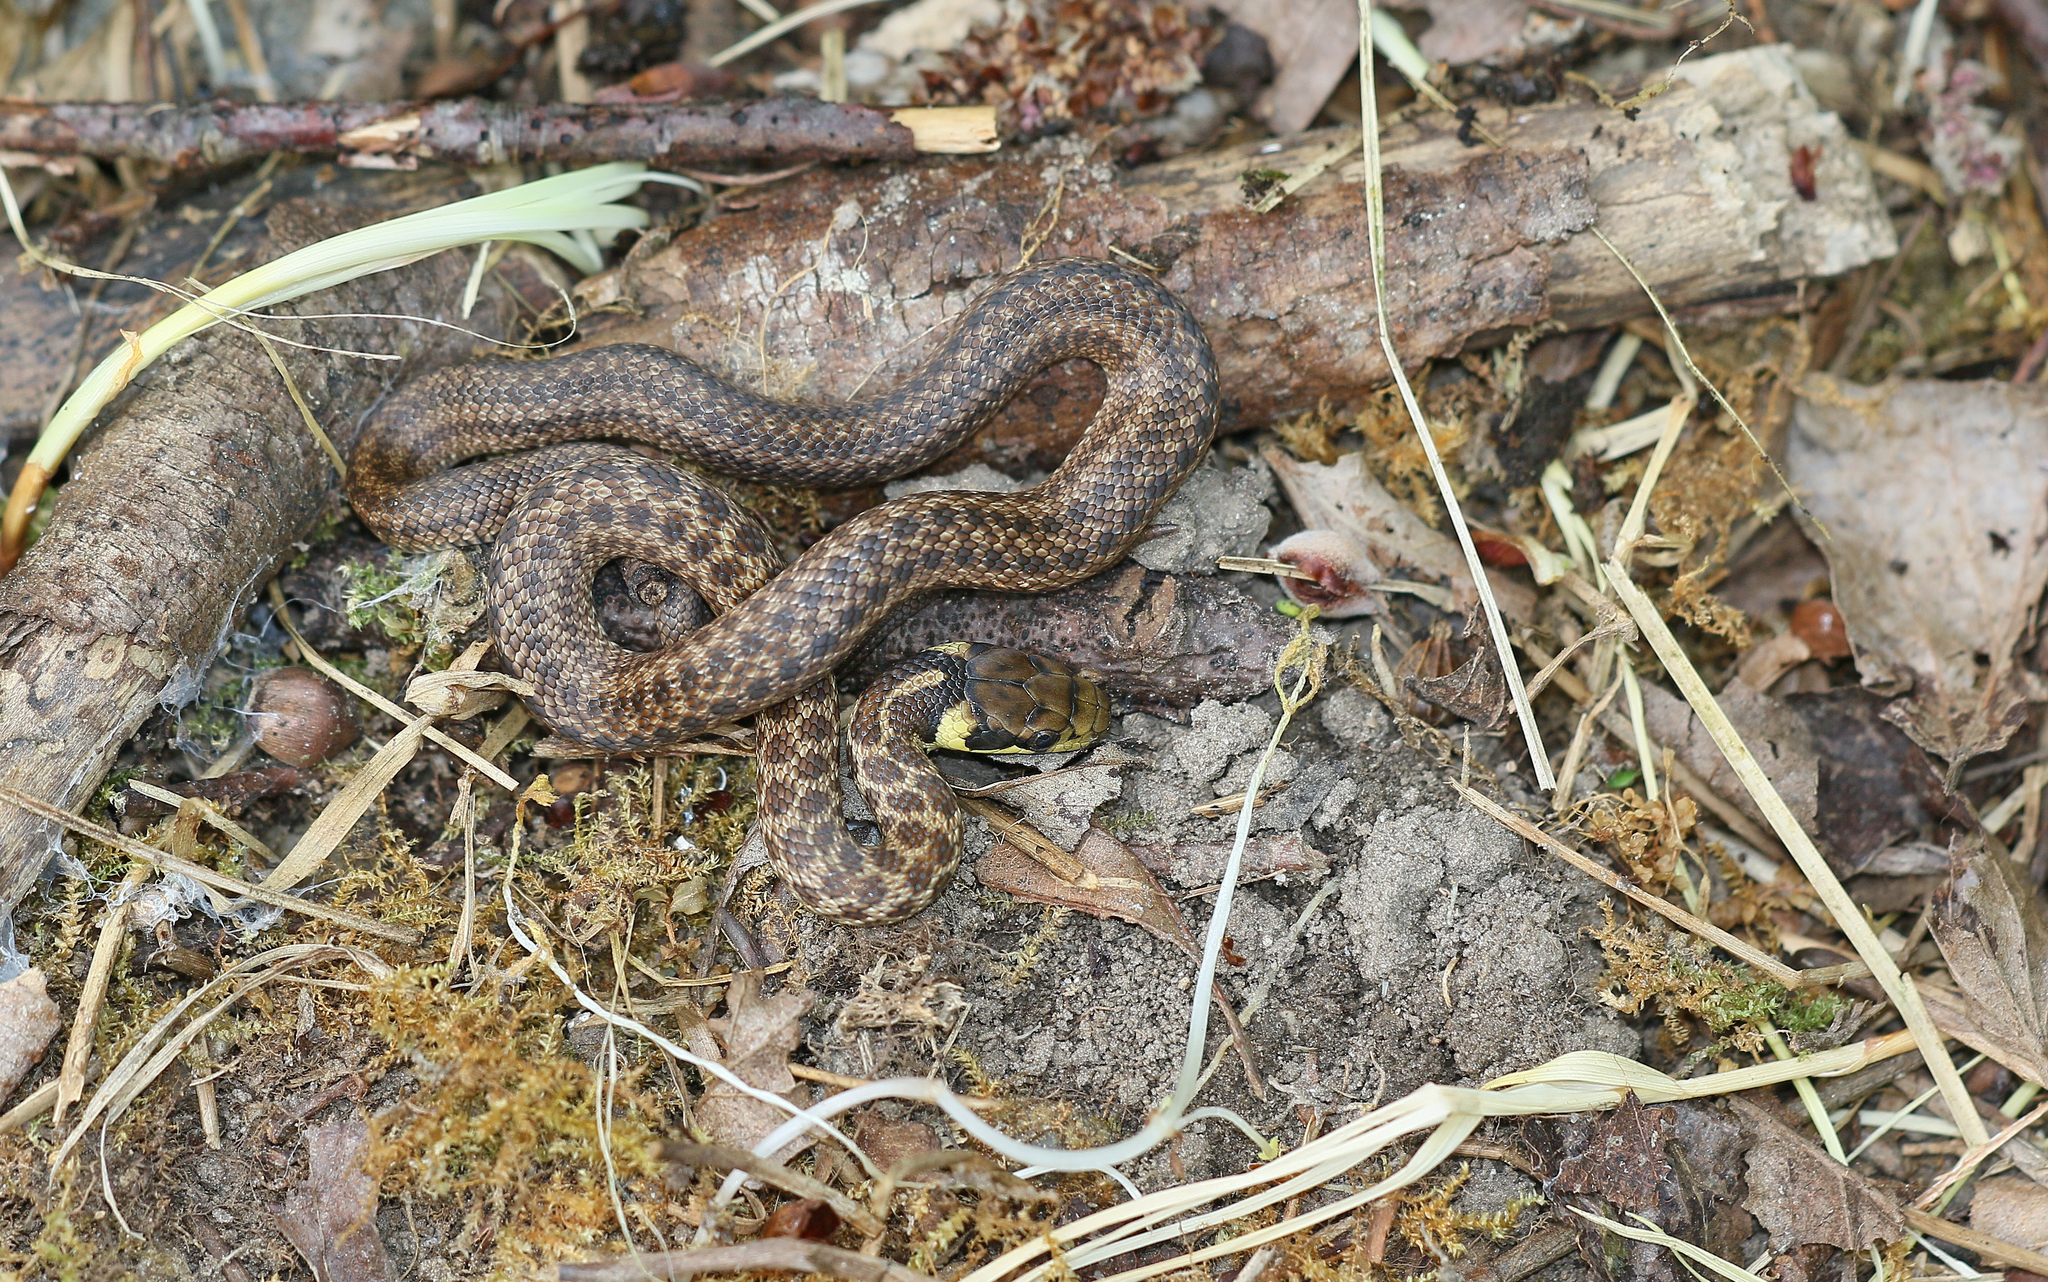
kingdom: Animalia
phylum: Chordata
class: Squamata
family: Colubridae
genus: Zamenis
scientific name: Zamenis longissimus
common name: Aesculapean snake
